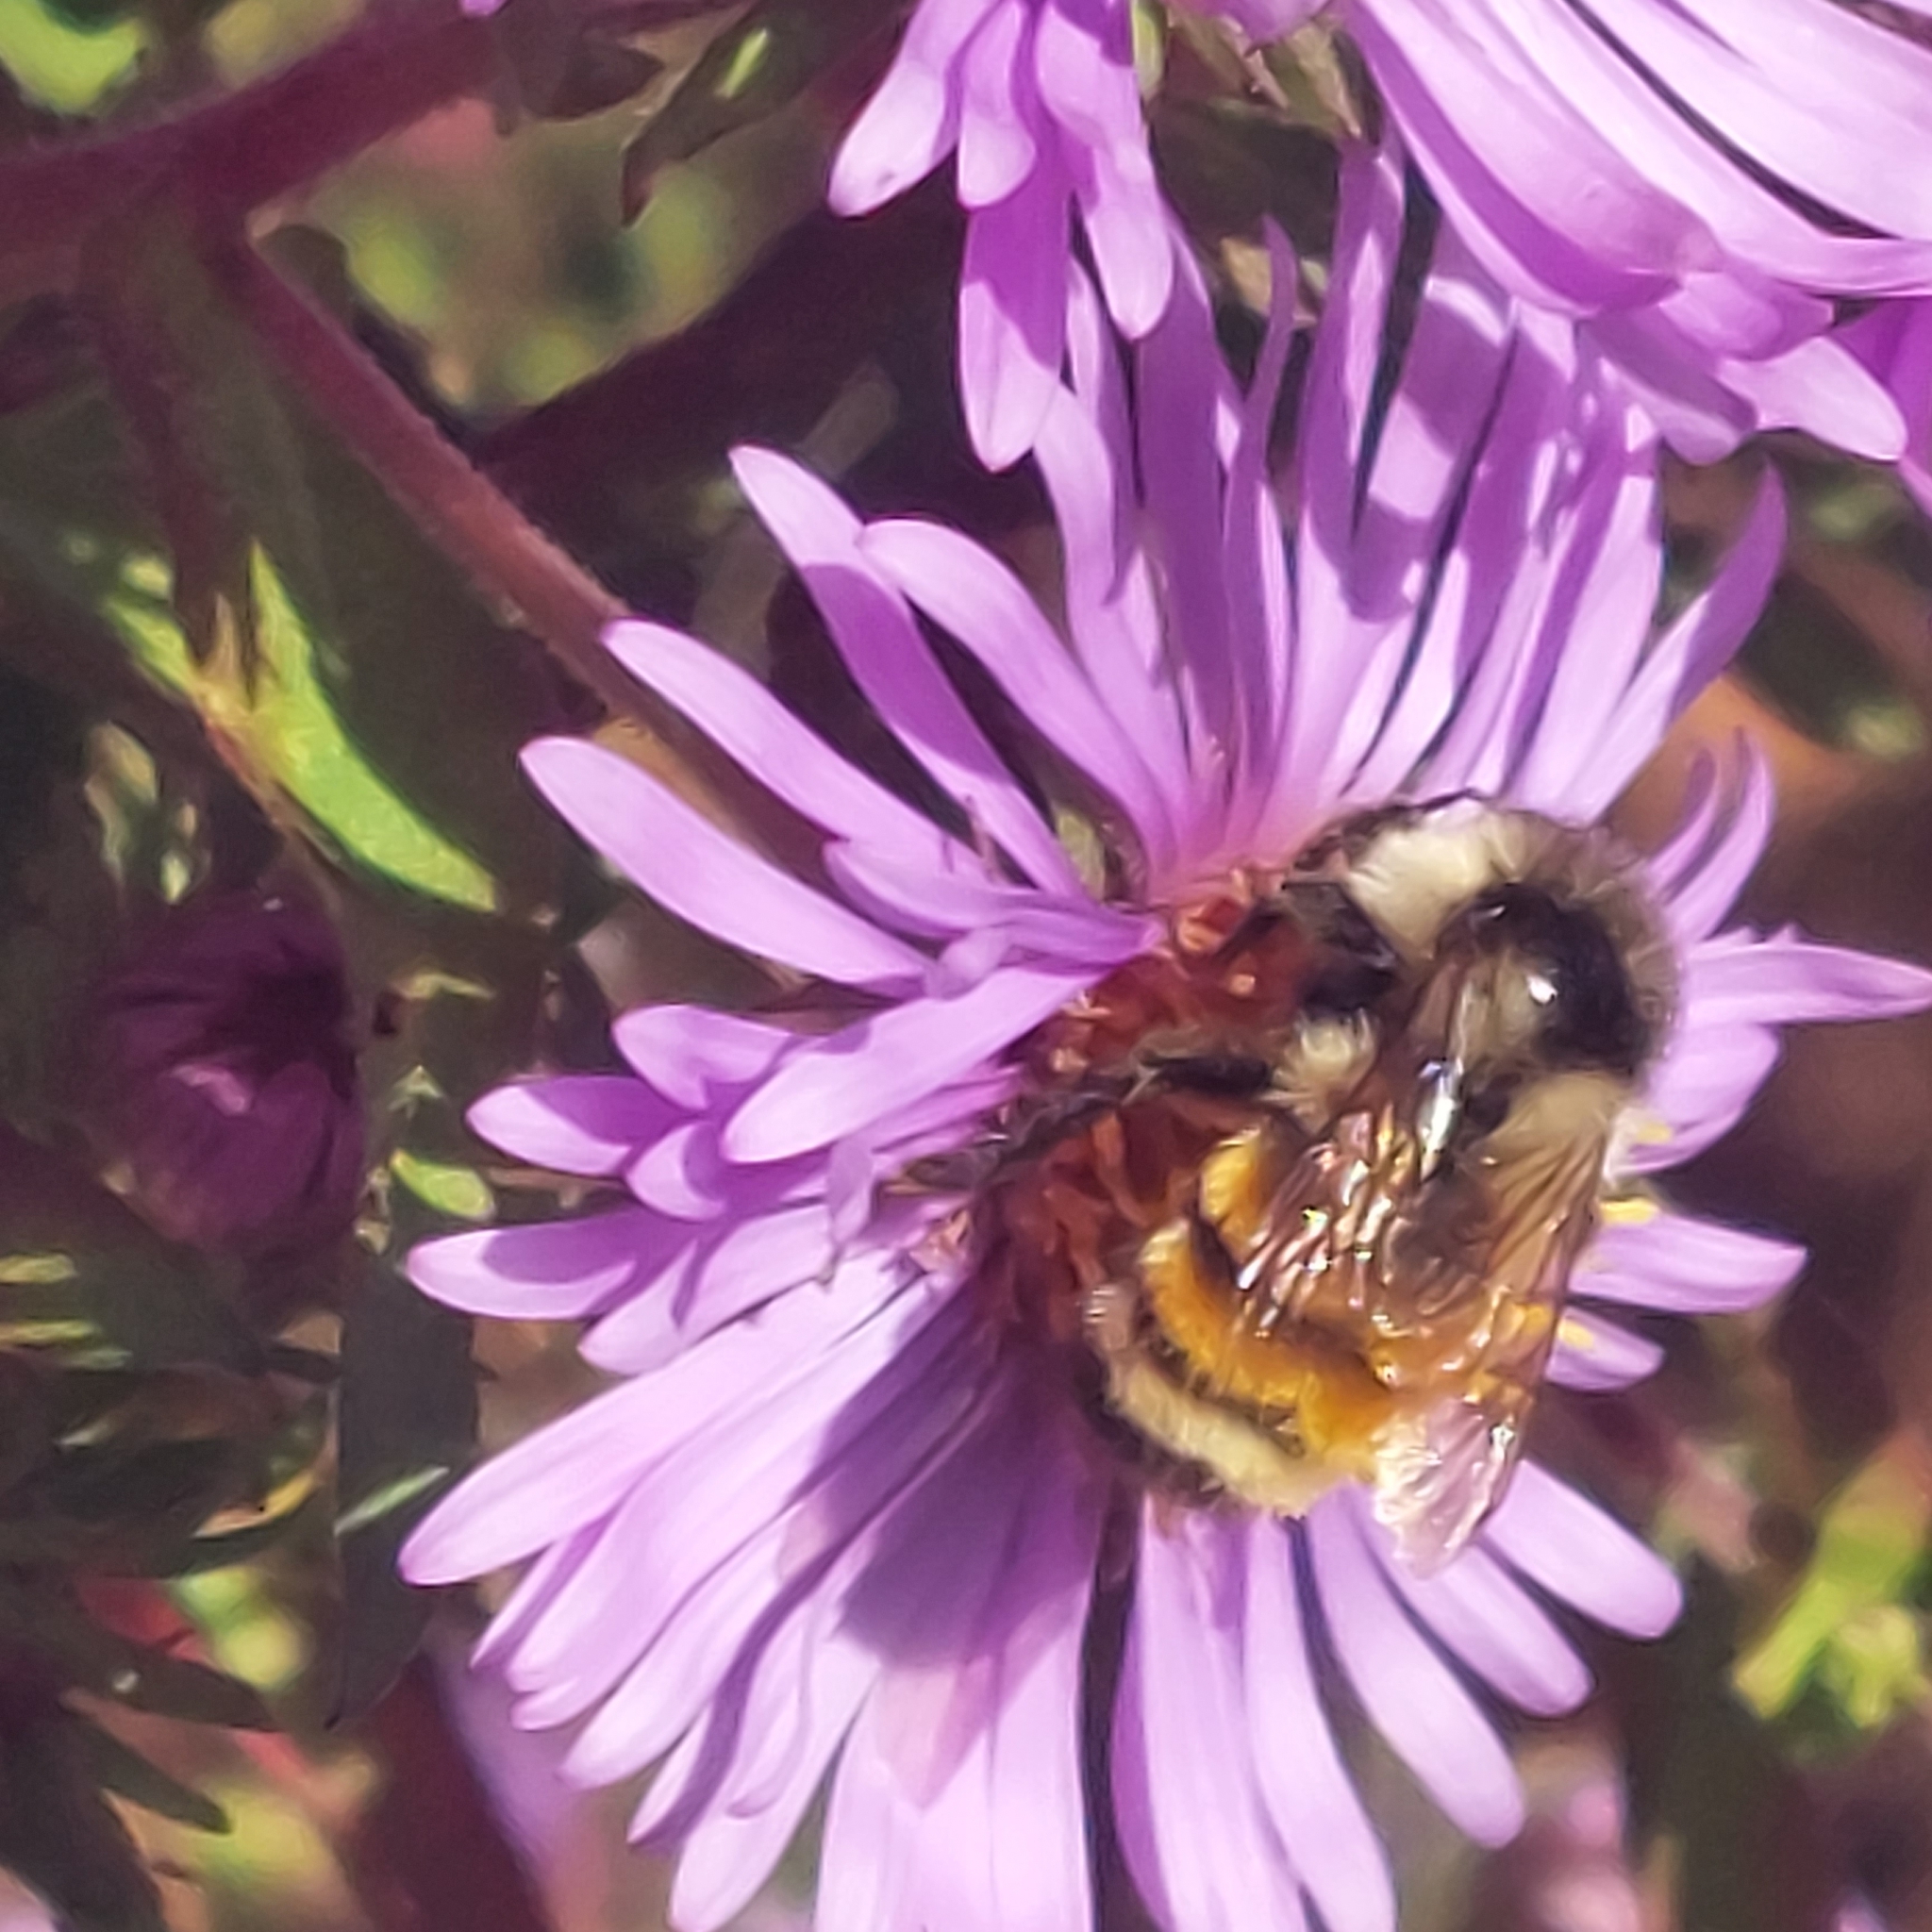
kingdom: Animalia
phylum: Arthropoda
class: Insecta
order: Hymenoptera
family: Apidae
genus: Bombus
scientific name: Bombus ternarius
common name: Tri-colored bumble bee
